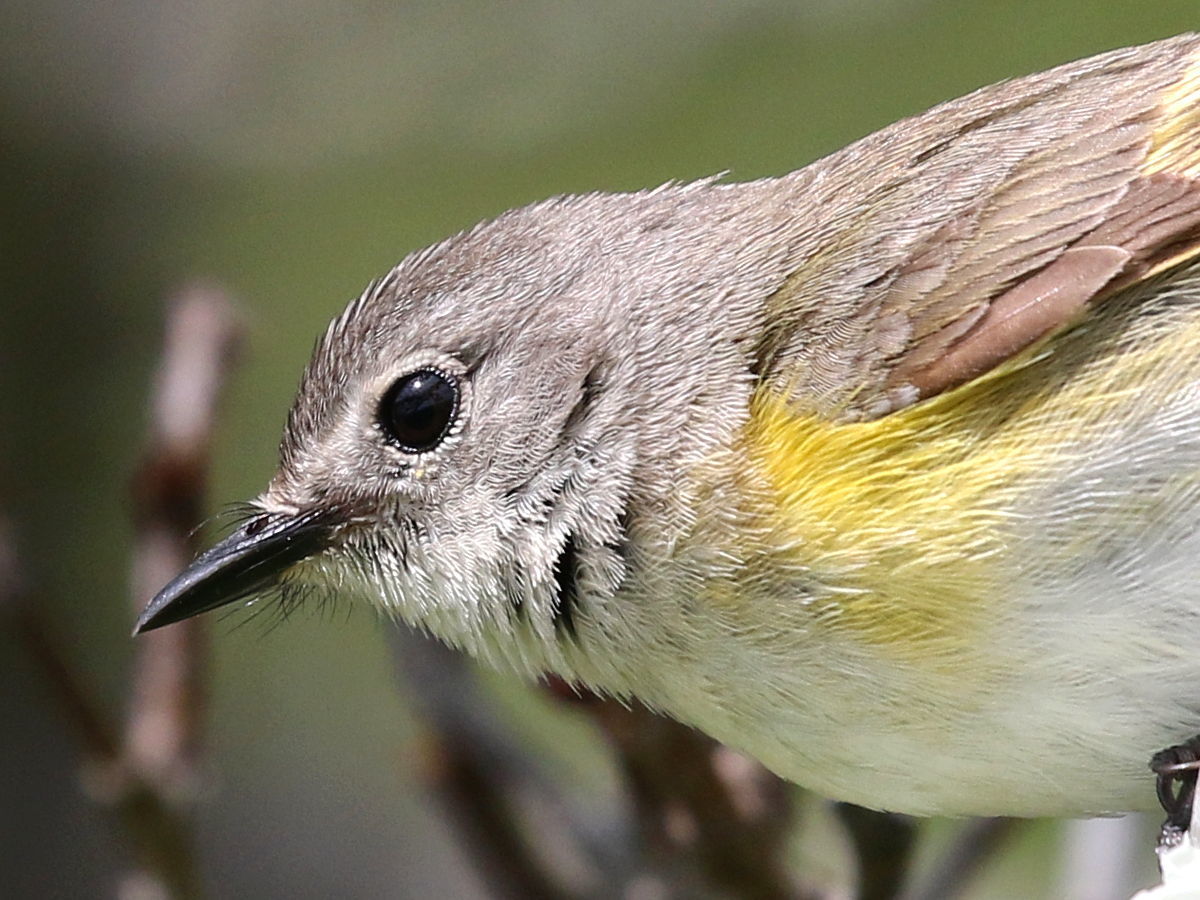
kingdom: Animalia
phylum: Chordata
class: Aves
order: Passeriformes
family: Parulidae
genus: Setophaga
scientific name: Setophaga ruticilla
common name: American redstart
